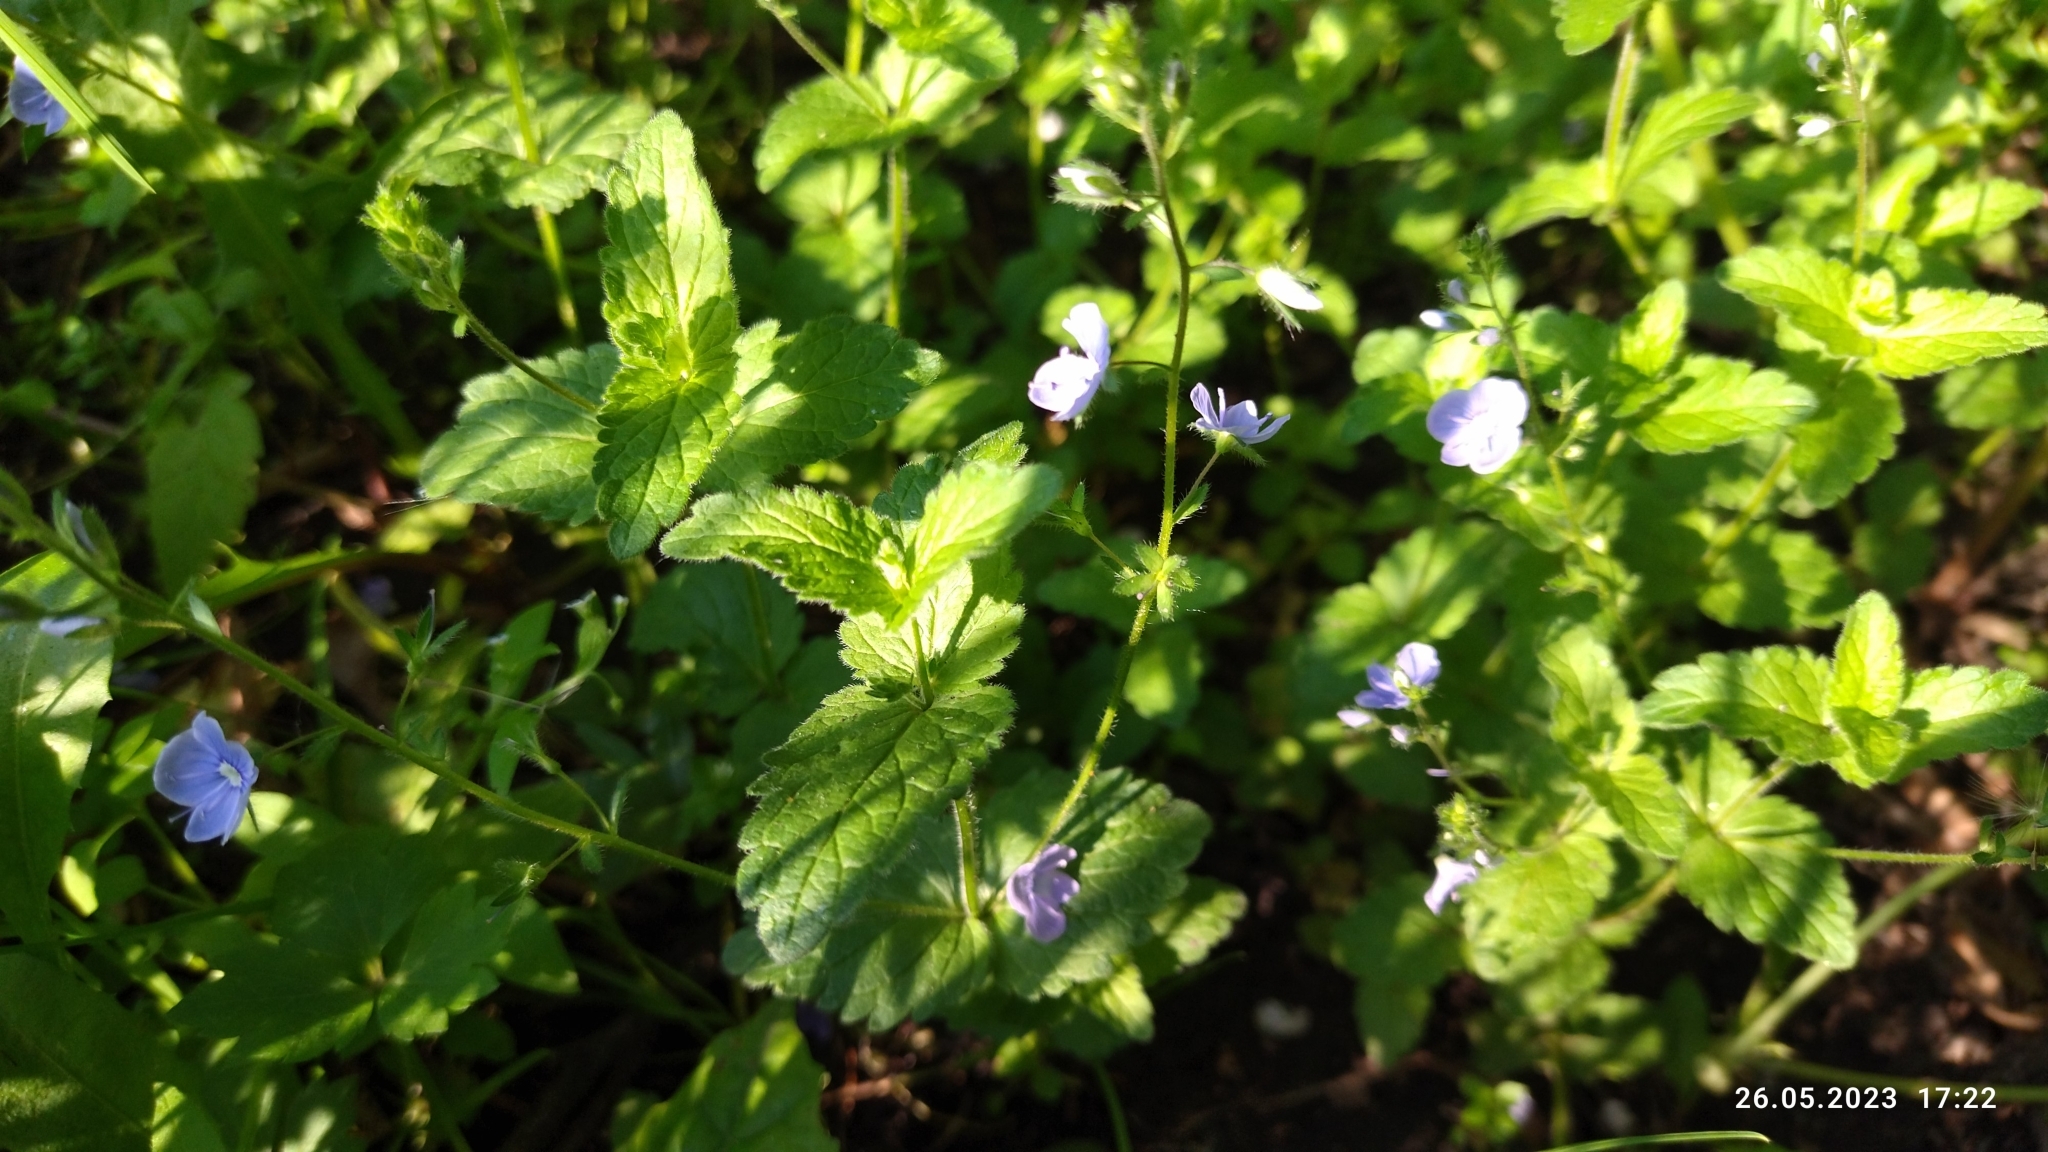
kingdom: Plantae
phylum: Tracheophyta
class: Magnoliopsida
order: Lamiales
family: Plantaginaceae
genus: Veronica
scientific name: Veronica chamaedrys
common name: Germander speedwell
